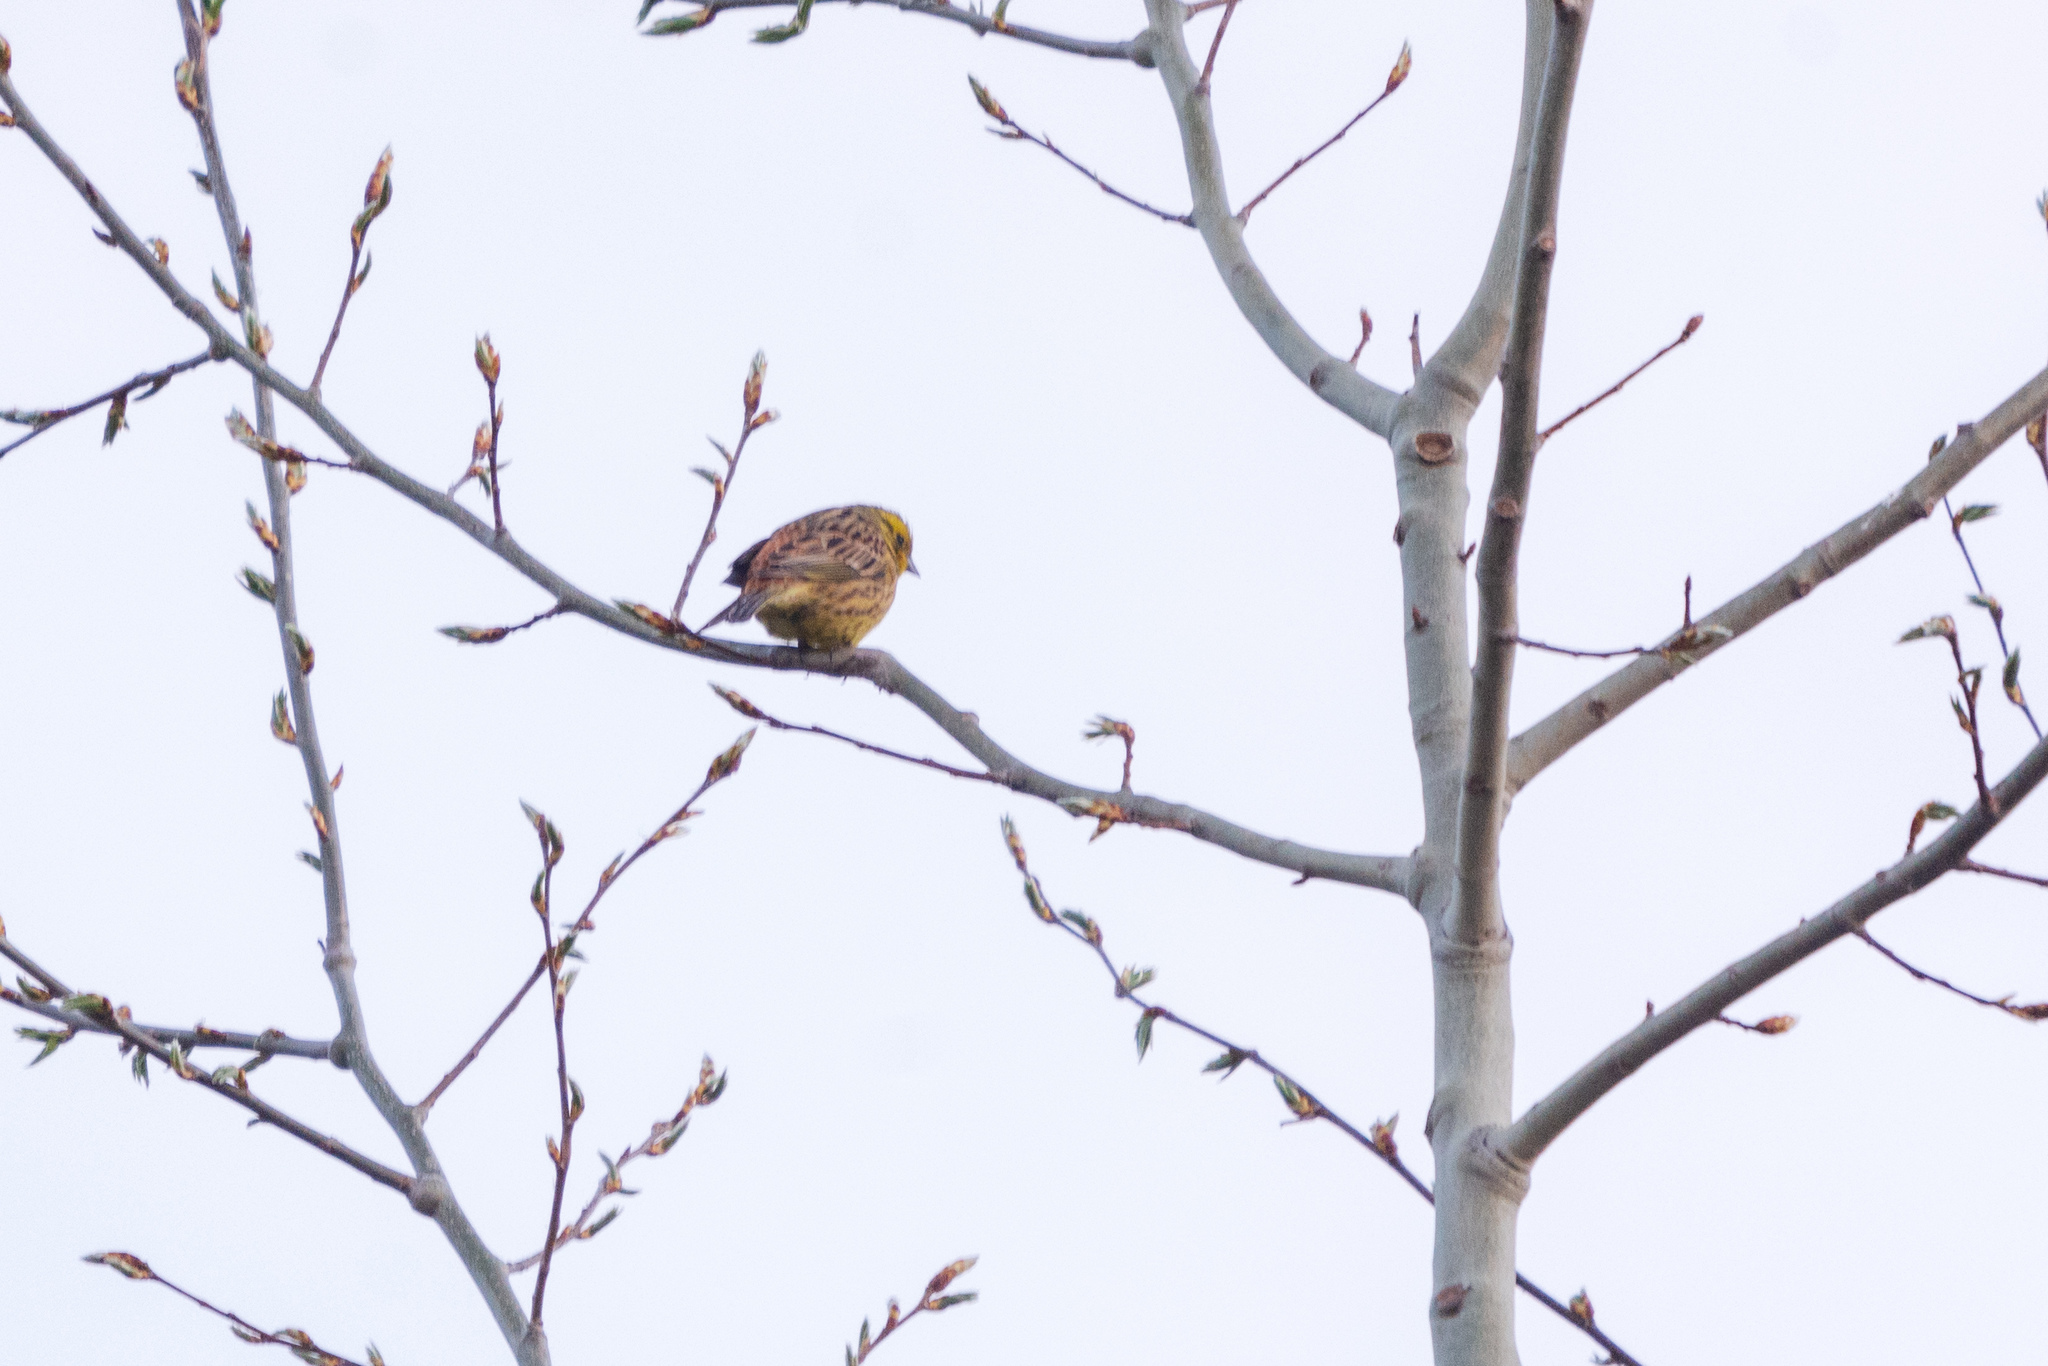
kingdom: Animalia
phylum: Chordata
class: Aves
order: Passeriformes
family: Emberizidae
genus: Emberiza
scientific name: Emberiza citrinella
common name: Yellowhammer
